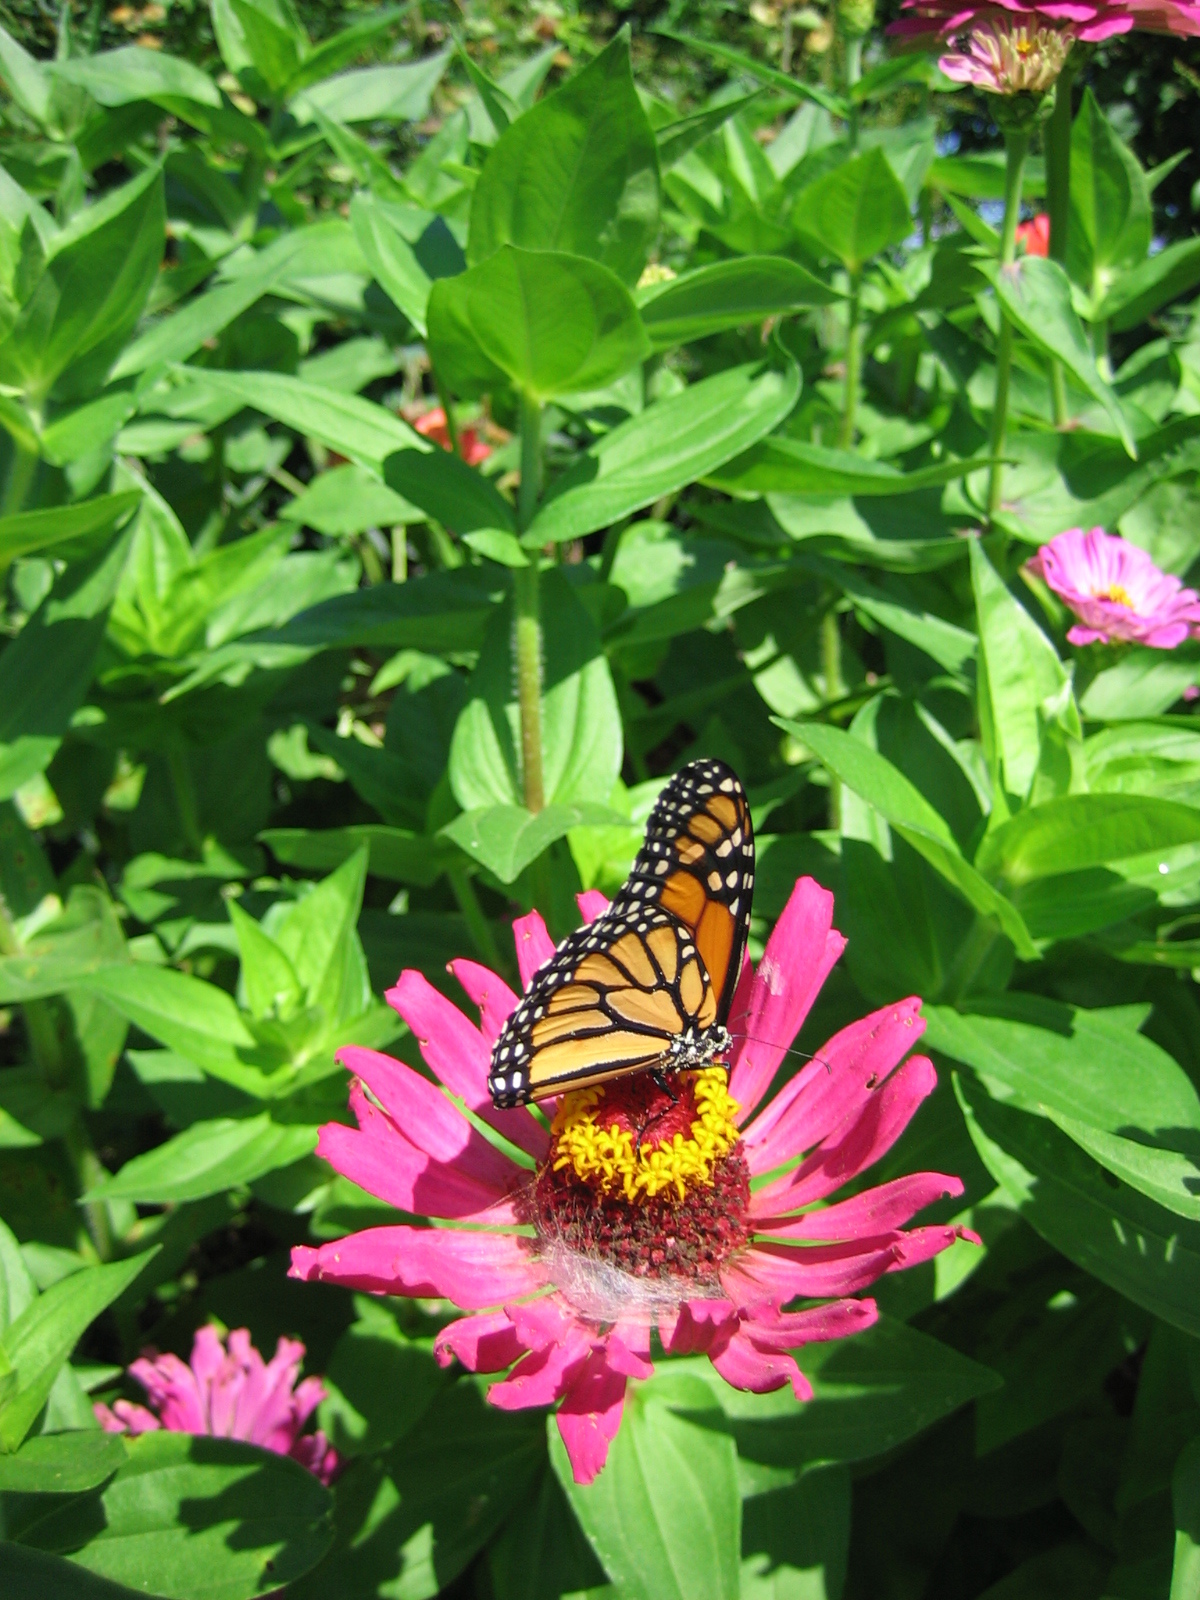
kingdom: Animalia
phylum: Arthropoda
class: Insecta
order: Lepidoptera
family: Nymphalidae
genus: Danaus
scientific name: Danaus plexippus
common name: Monarch
